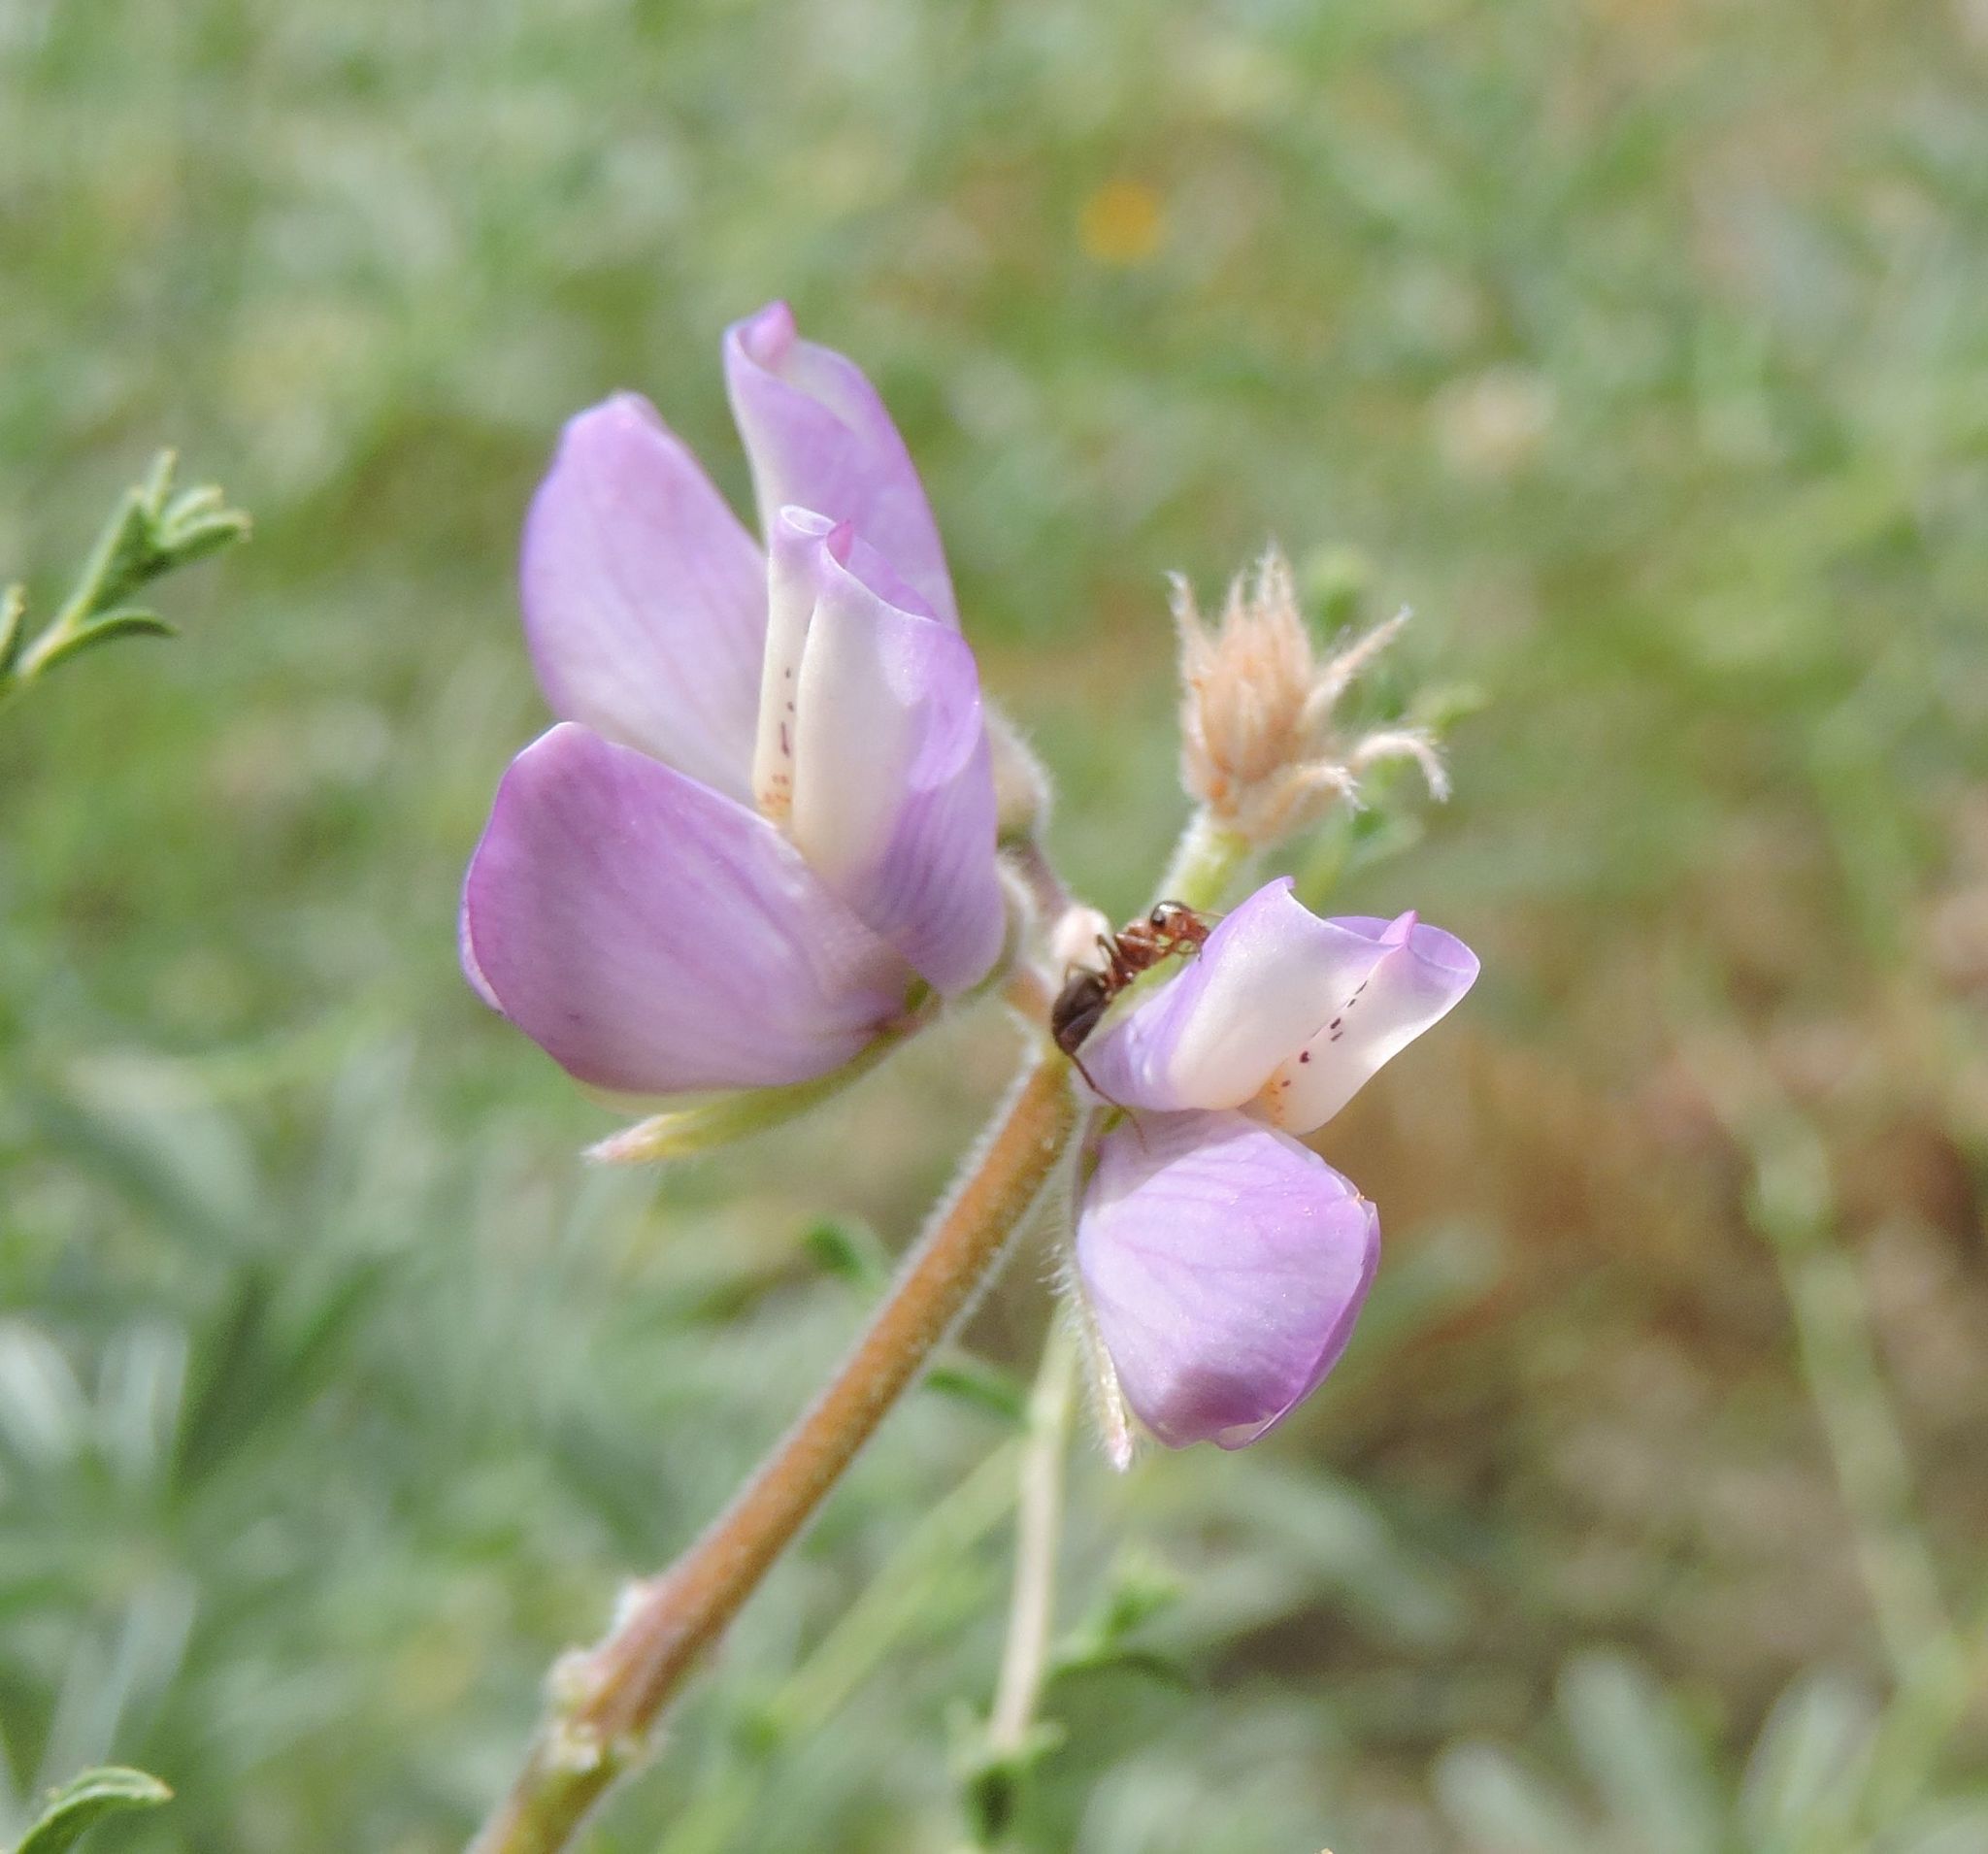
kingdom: Plantae
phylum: Tracheophyta
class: Magnoliopsida
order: Fabales
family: Fabaceae
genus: Lupinus
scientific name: Lupinus formosus
